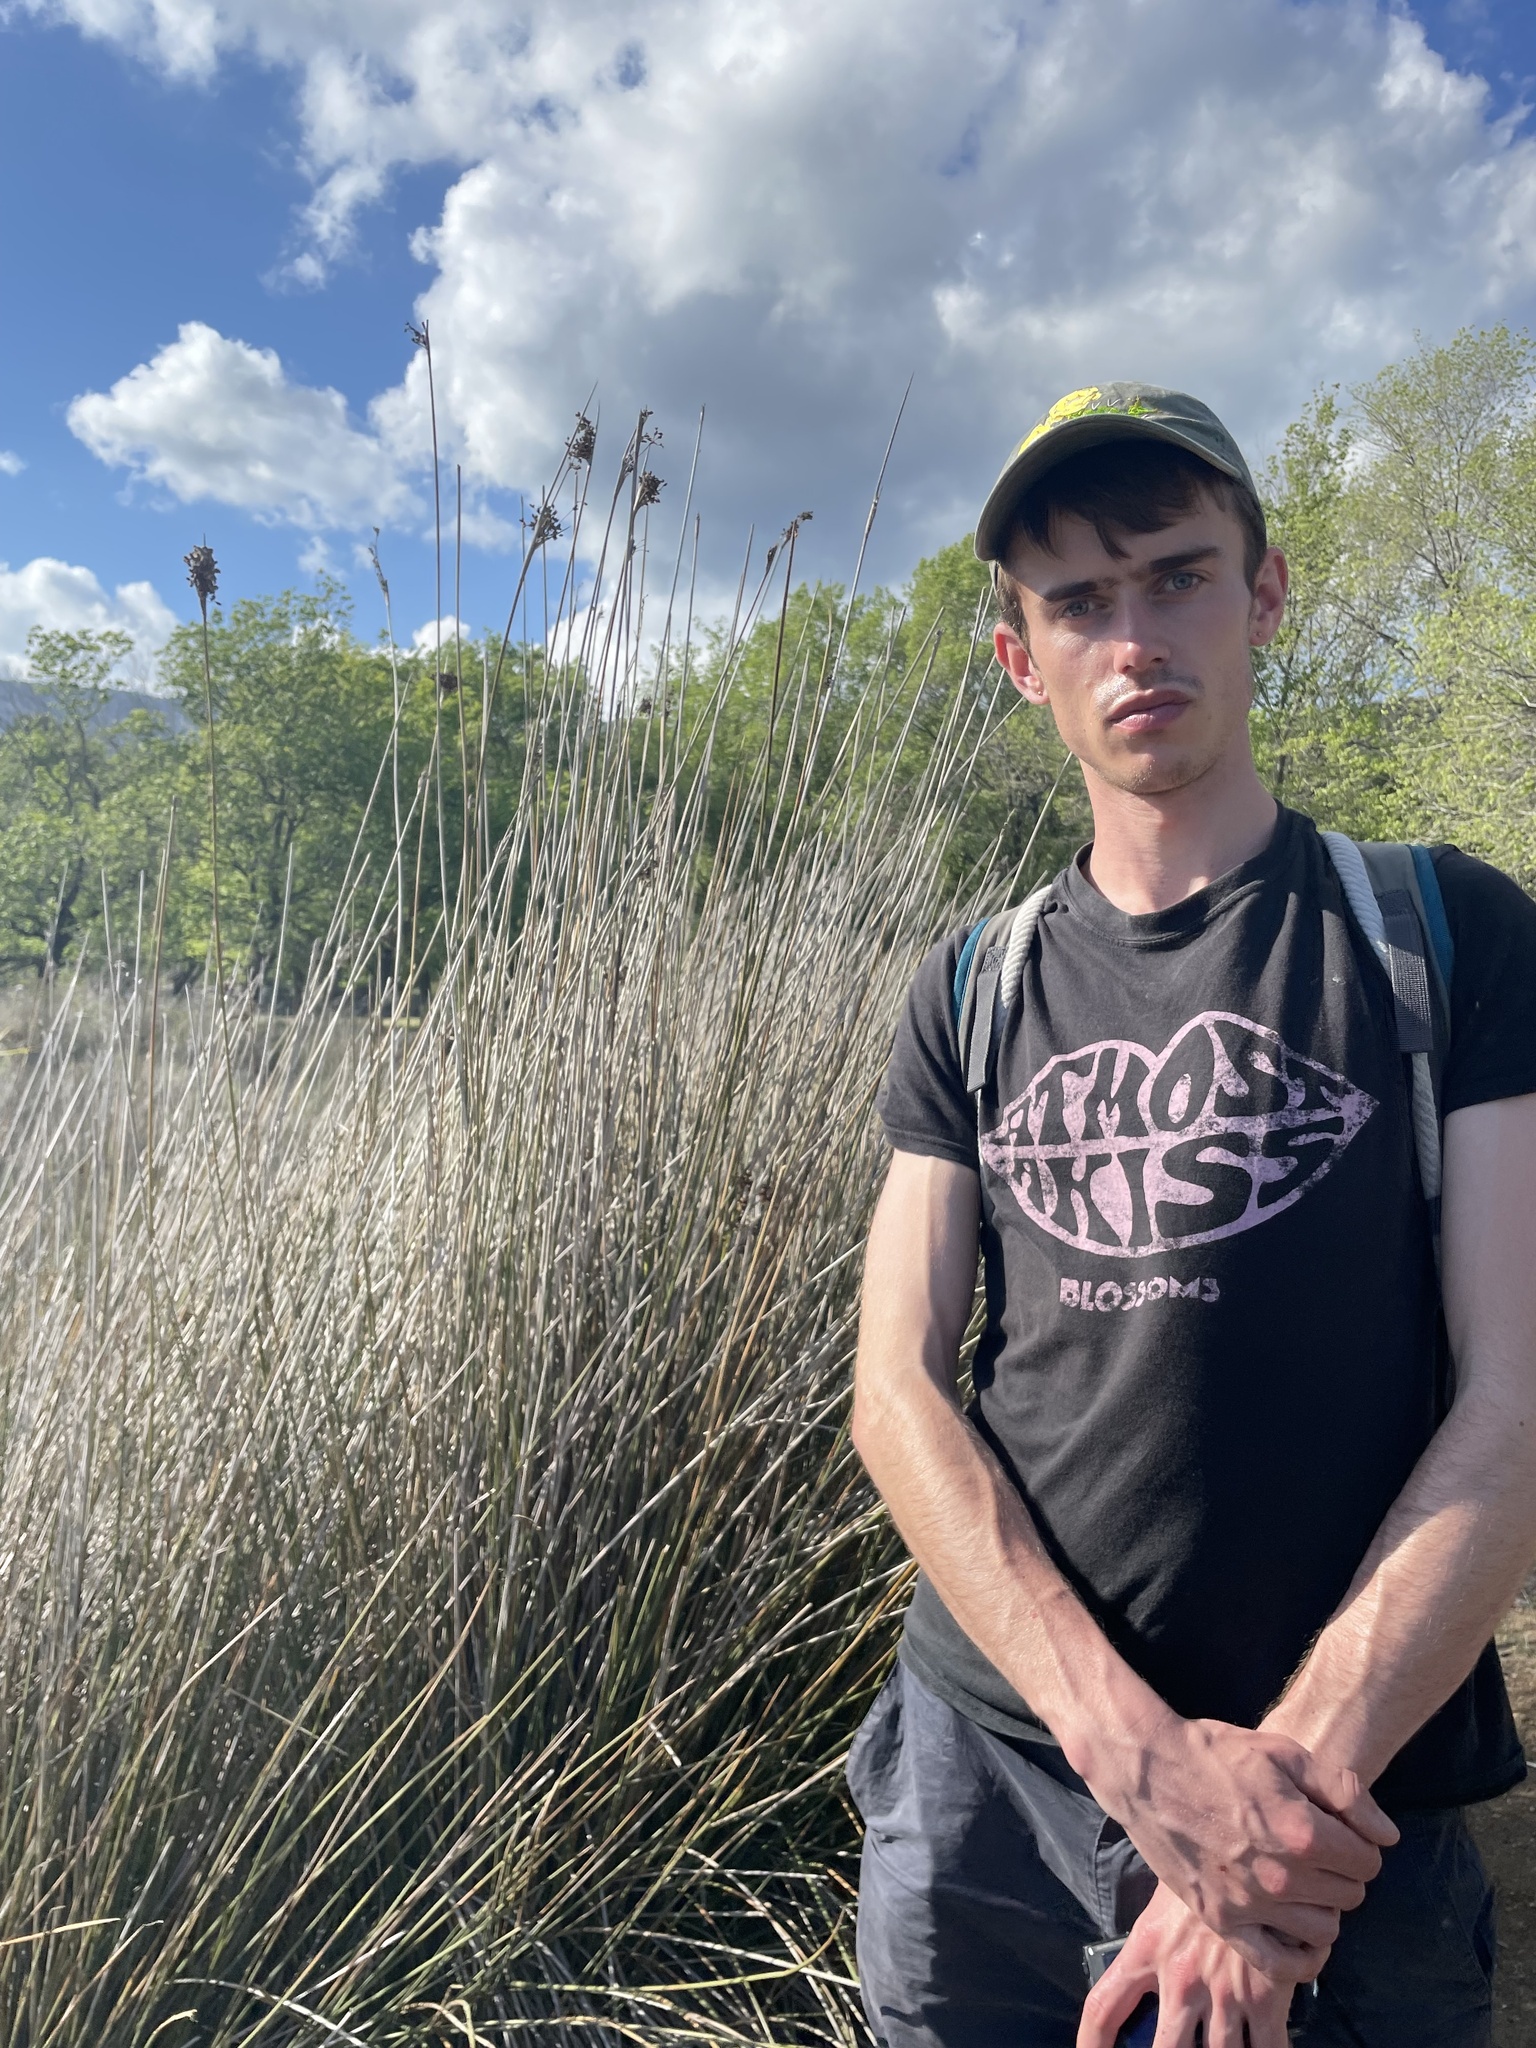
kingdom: Plantae
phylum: Tracheophyta
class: Liliopsida
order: Poales
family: Juncaceae
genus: Juncus
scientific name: Juncus acutus
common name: Sharp rush
